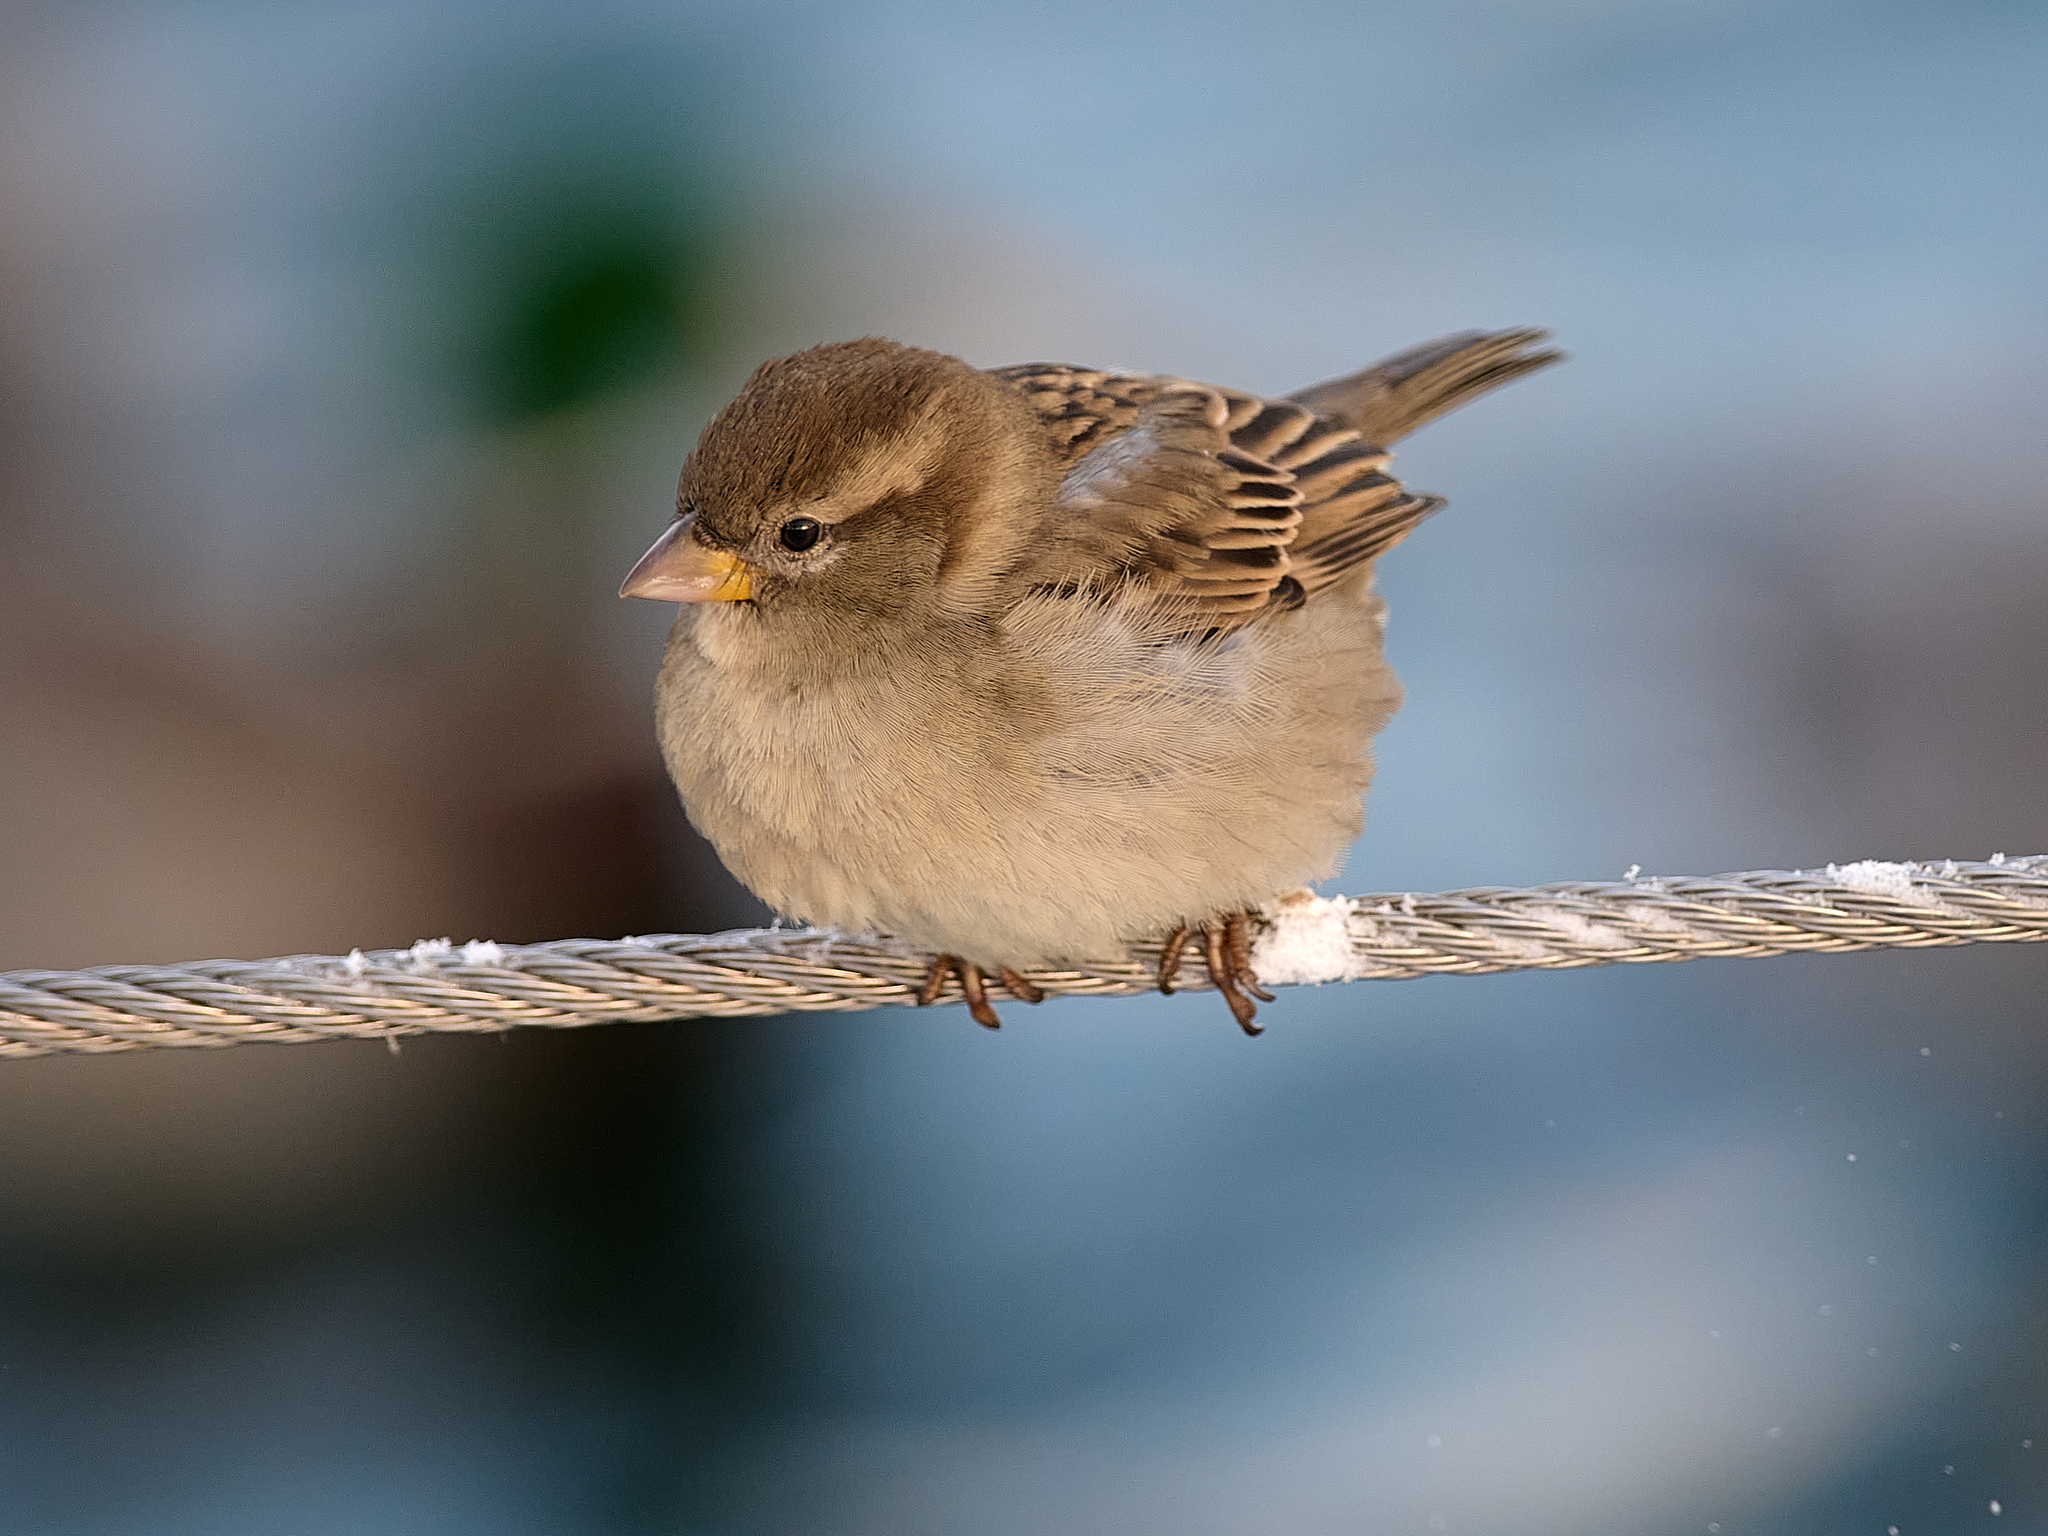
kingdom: Animalia
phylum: Chordata
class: Aves
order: Passeriformes
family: Passeridae
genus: Passer
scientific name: Passer domesticus
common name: House sparrow
